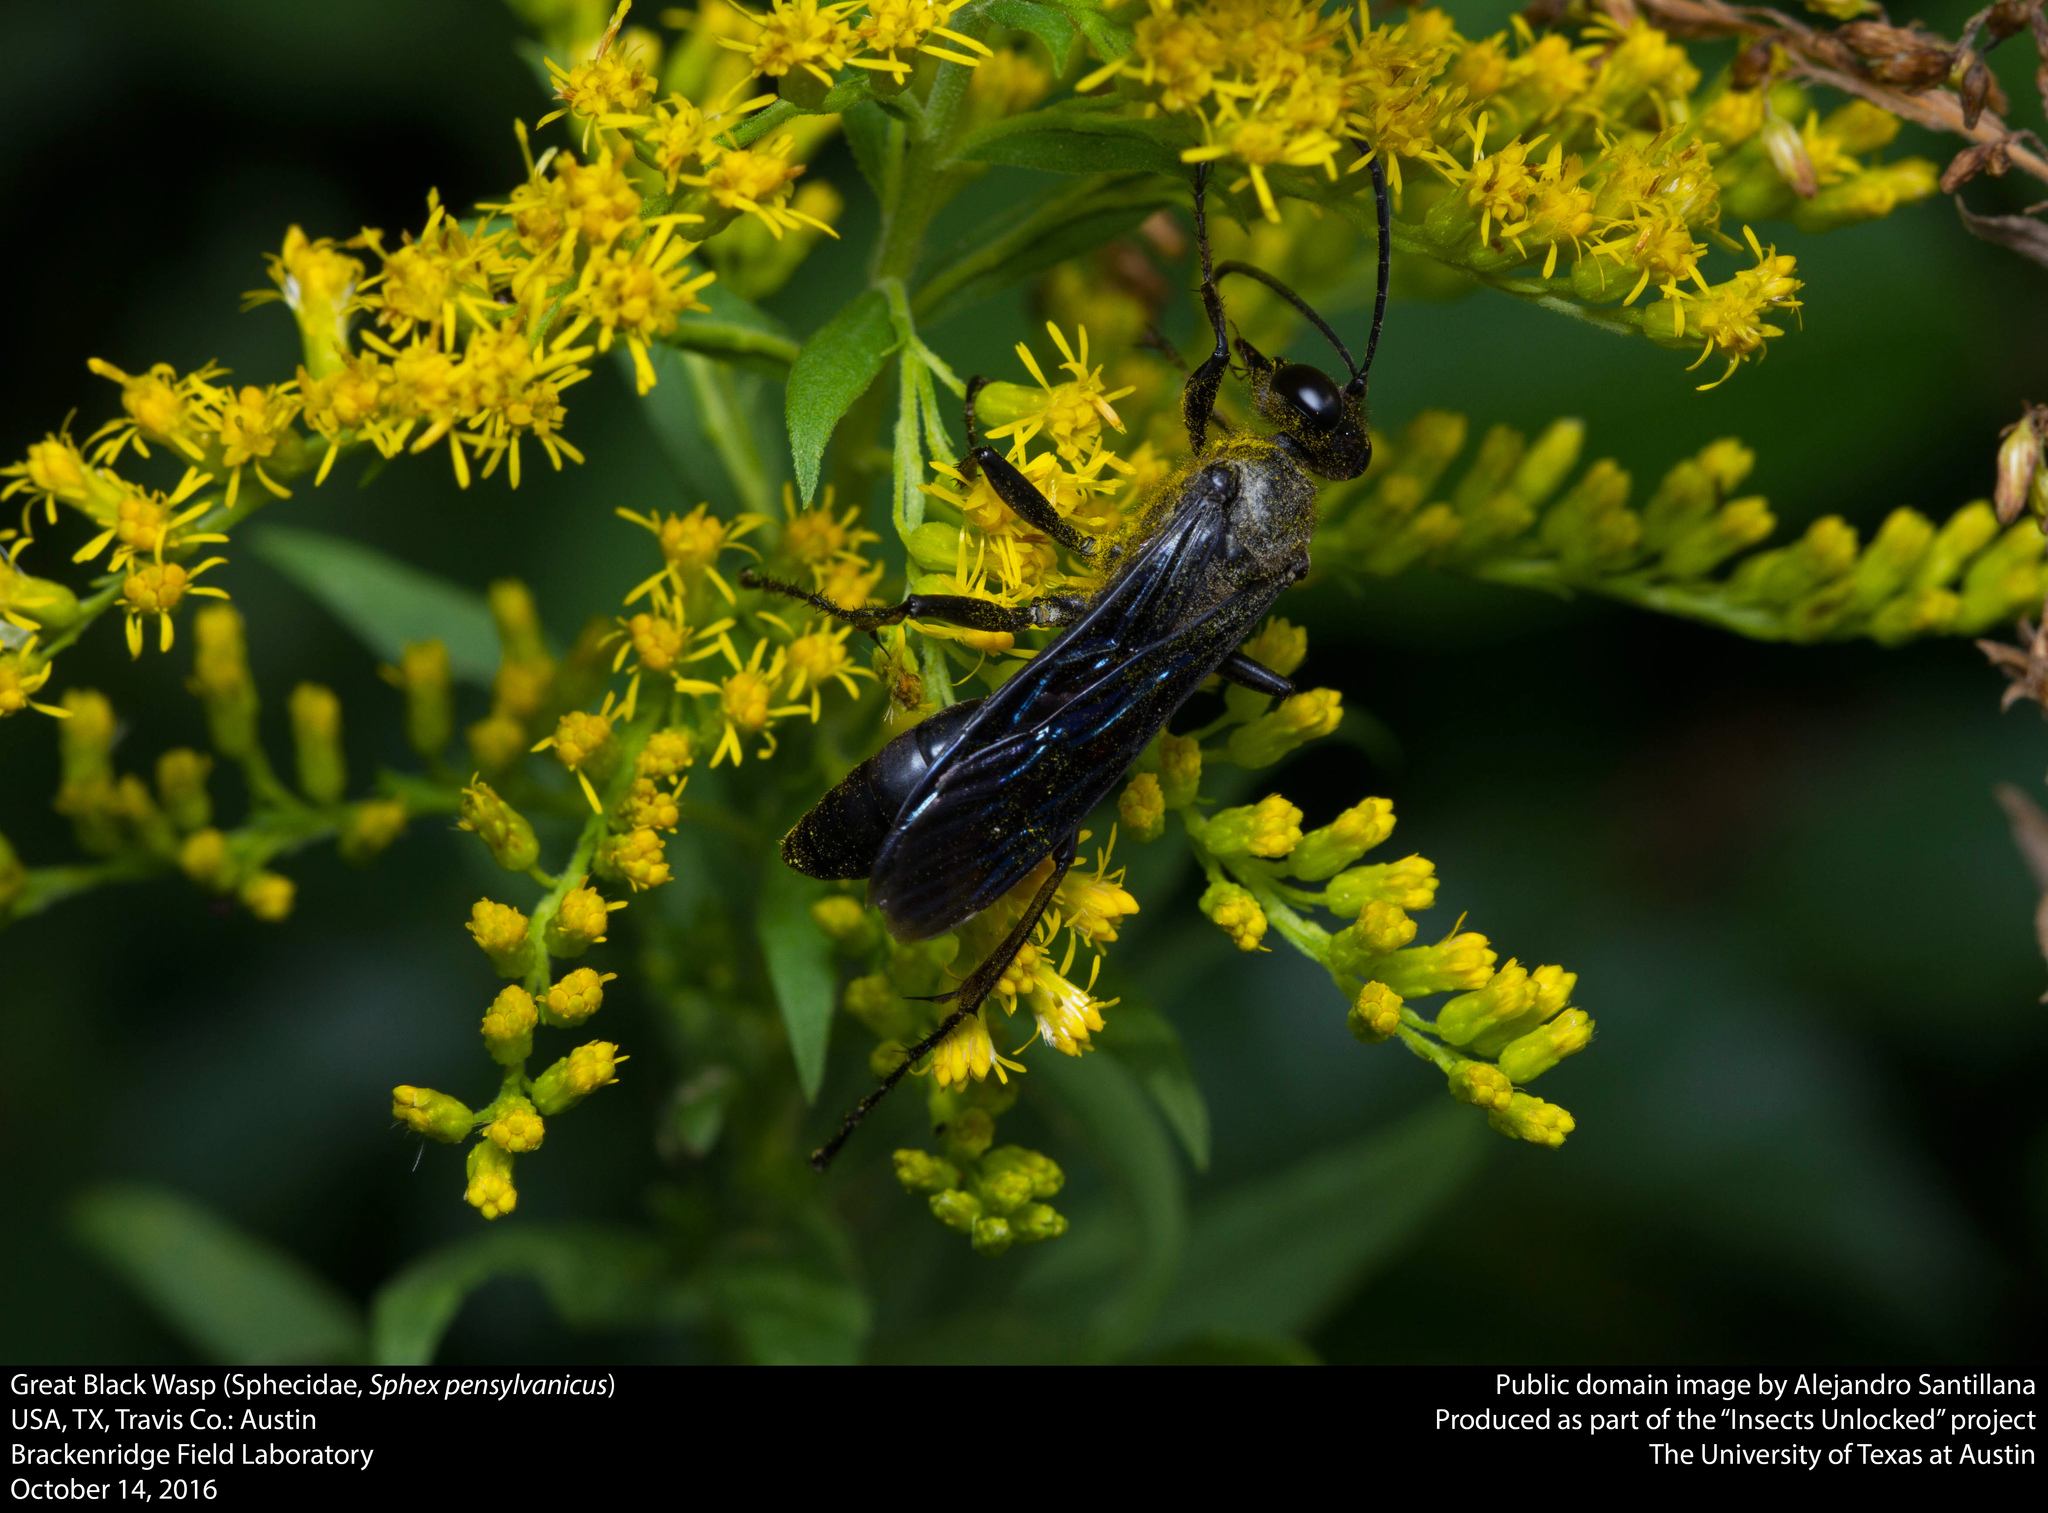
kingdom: Animalia
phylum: Arthropoda
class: Insecta
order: Hymenoptera
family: Sphecidae
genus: Sphex
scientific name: Sphex pensylvanicus
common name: Great black digger wasp
